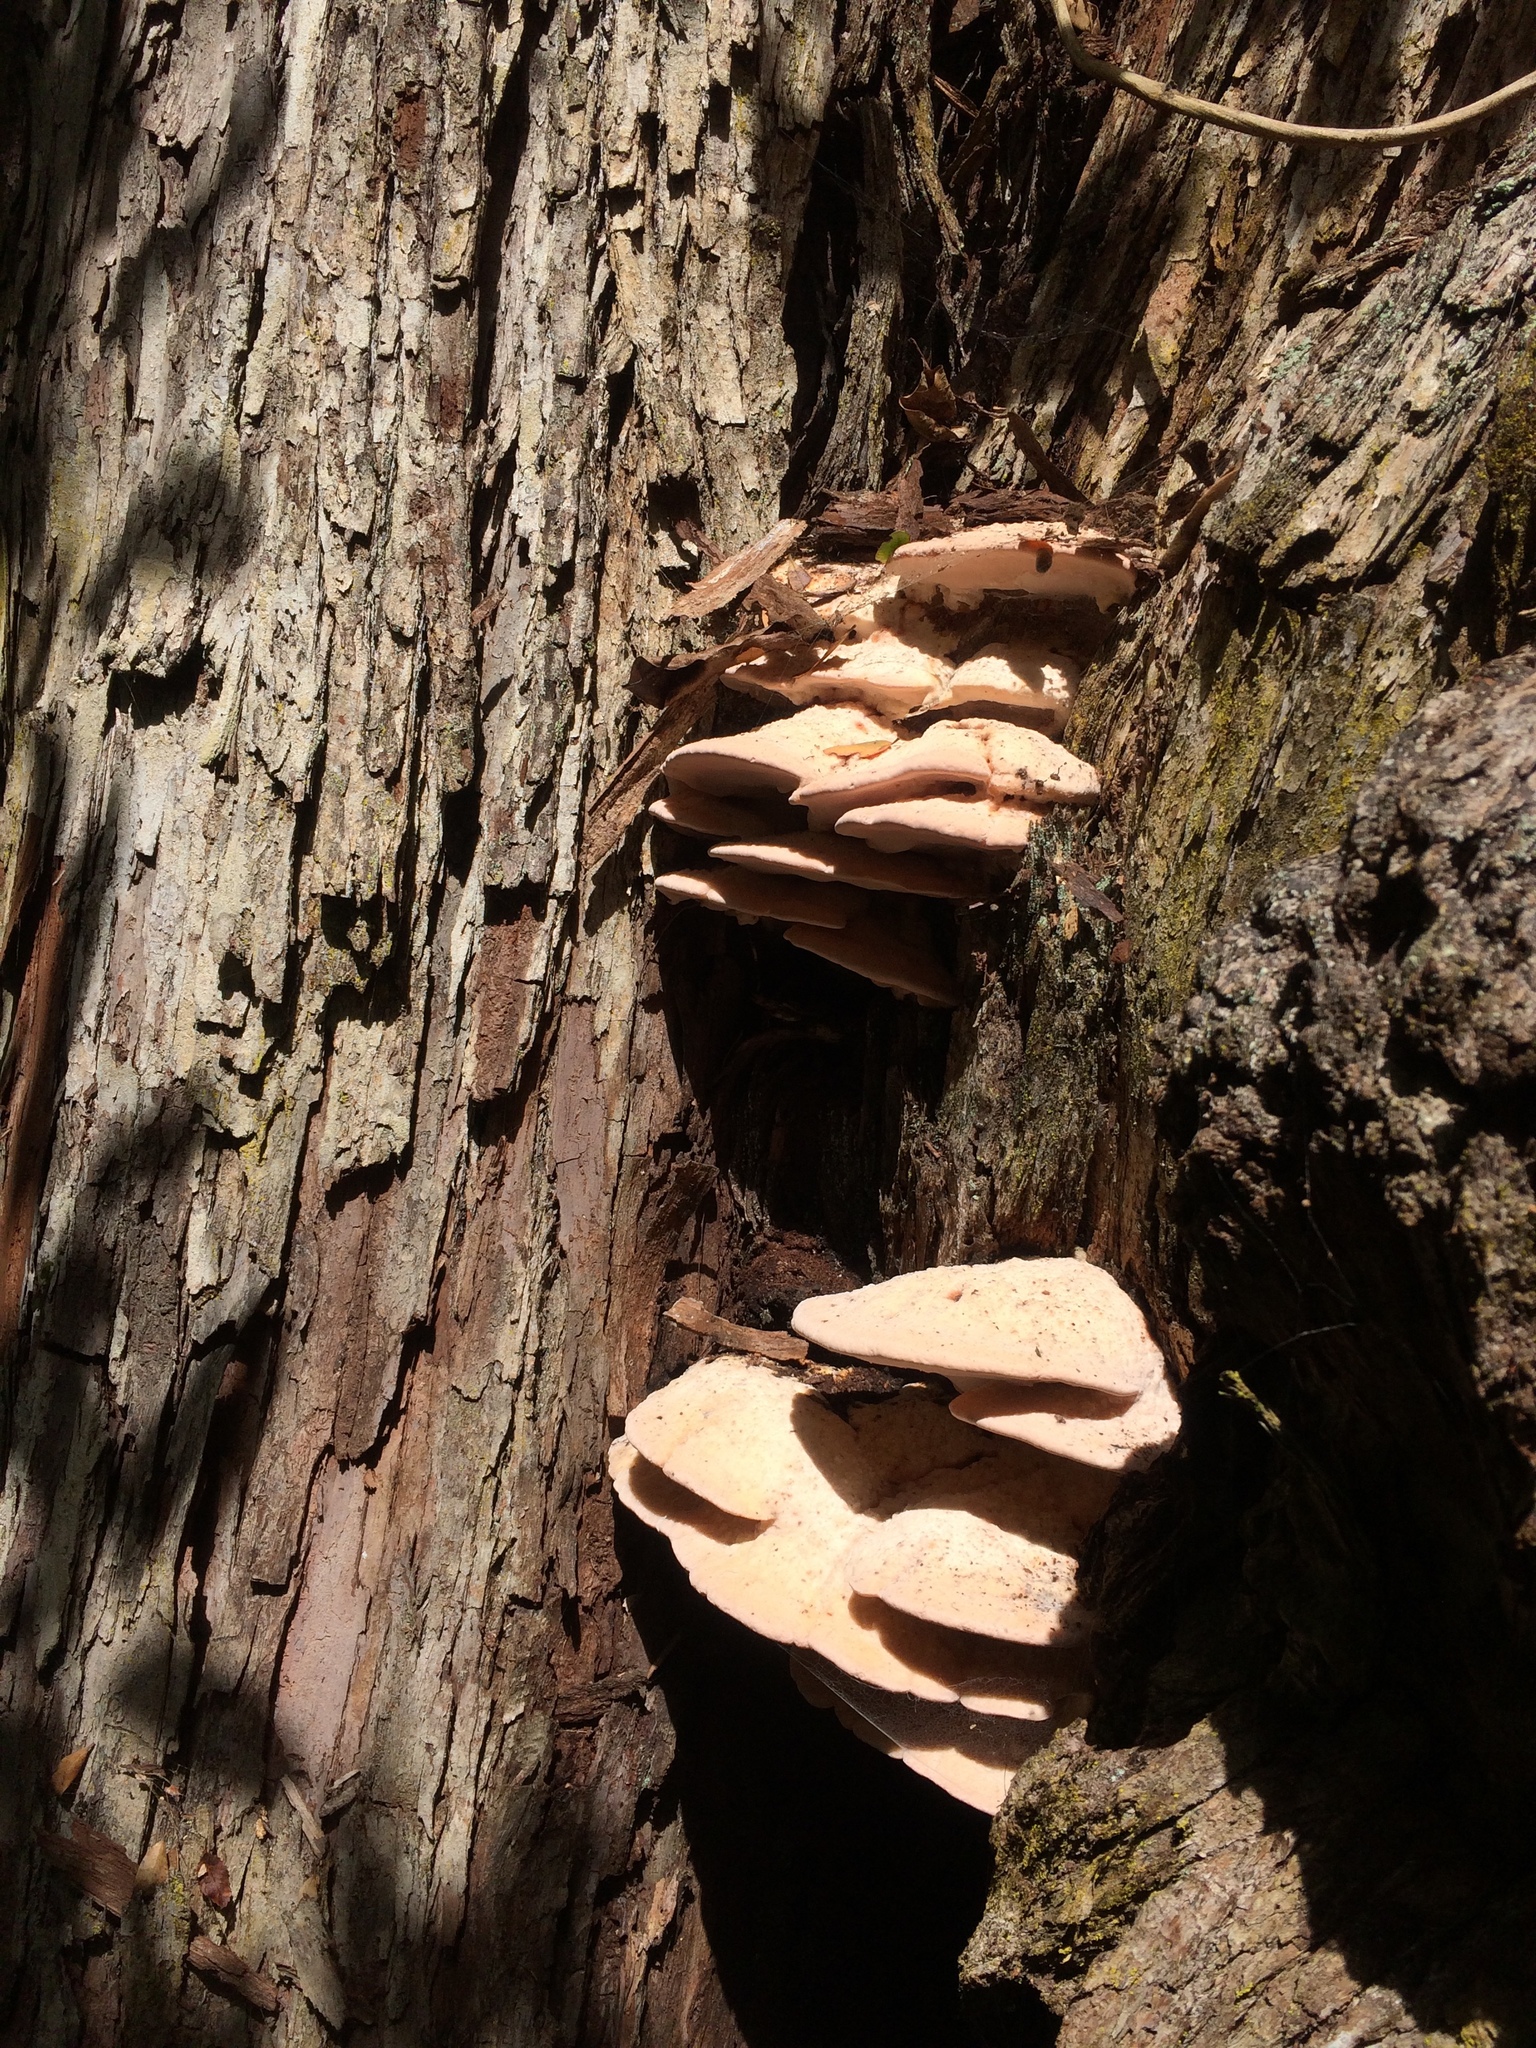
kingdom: Fungi
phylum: Basidiomycota
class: Agaricomycetes
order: Polyporales
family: Fomitopsidaceae
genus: Rhodofomitopsis
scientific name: Rhodofomitopsis feei
